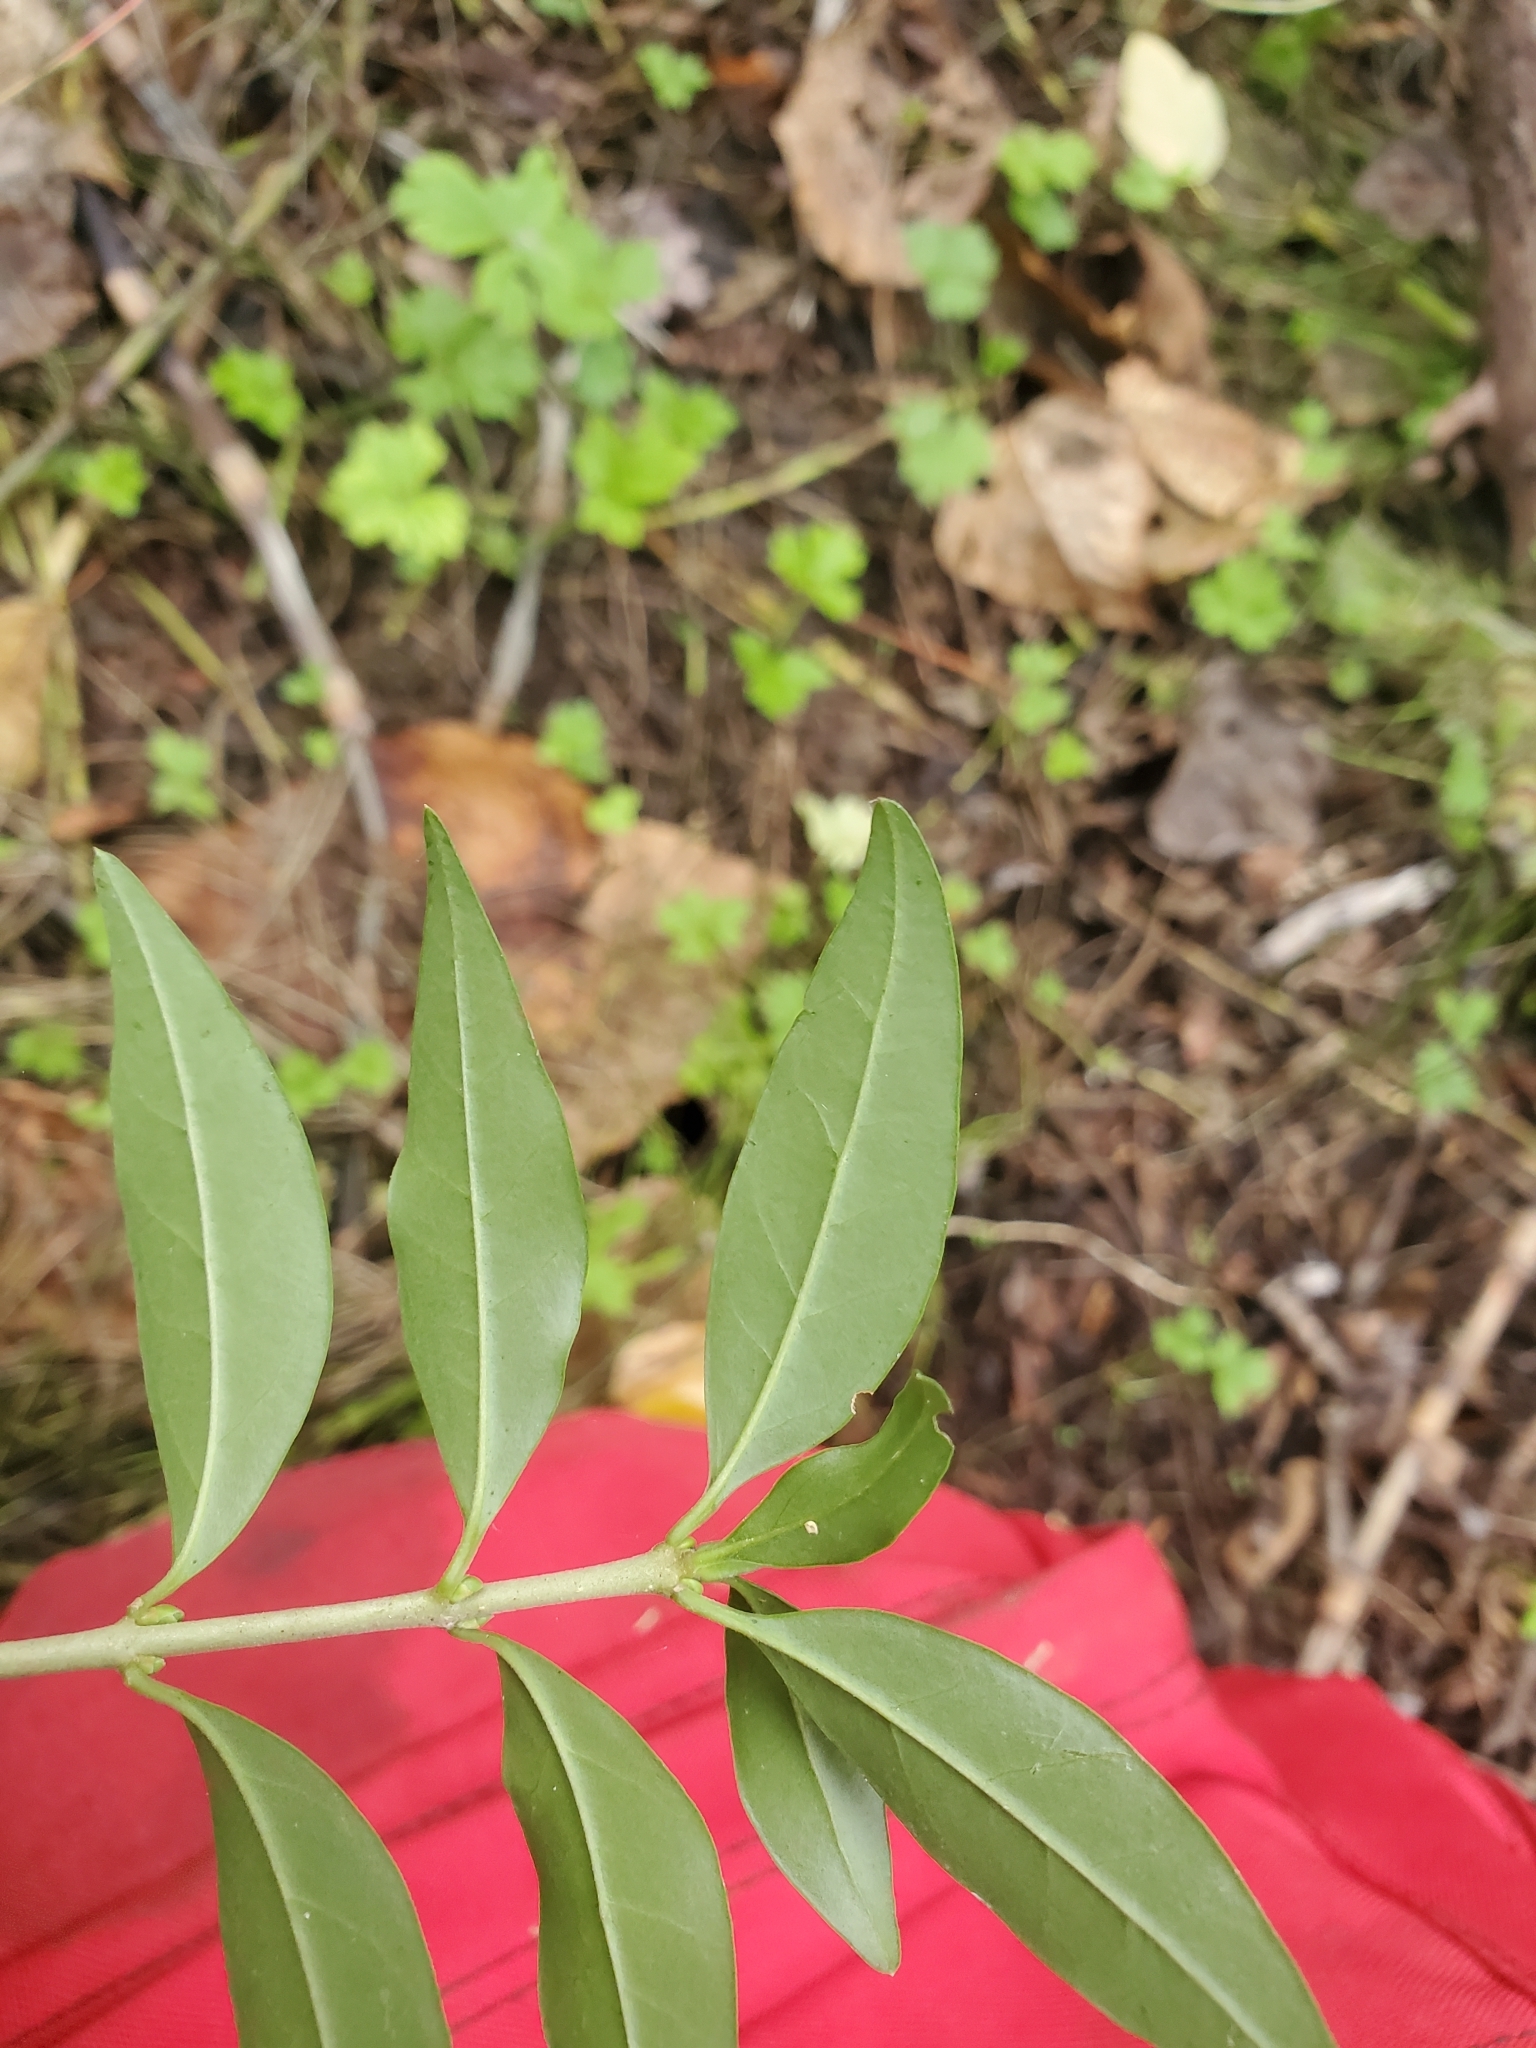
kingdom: Plantae
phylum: Tracheophyta
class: Magnoliopsida
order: Lamiales
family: Oleaceae
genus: Ligustrum
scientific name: Ligustrum vulgare
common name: Wild privet
